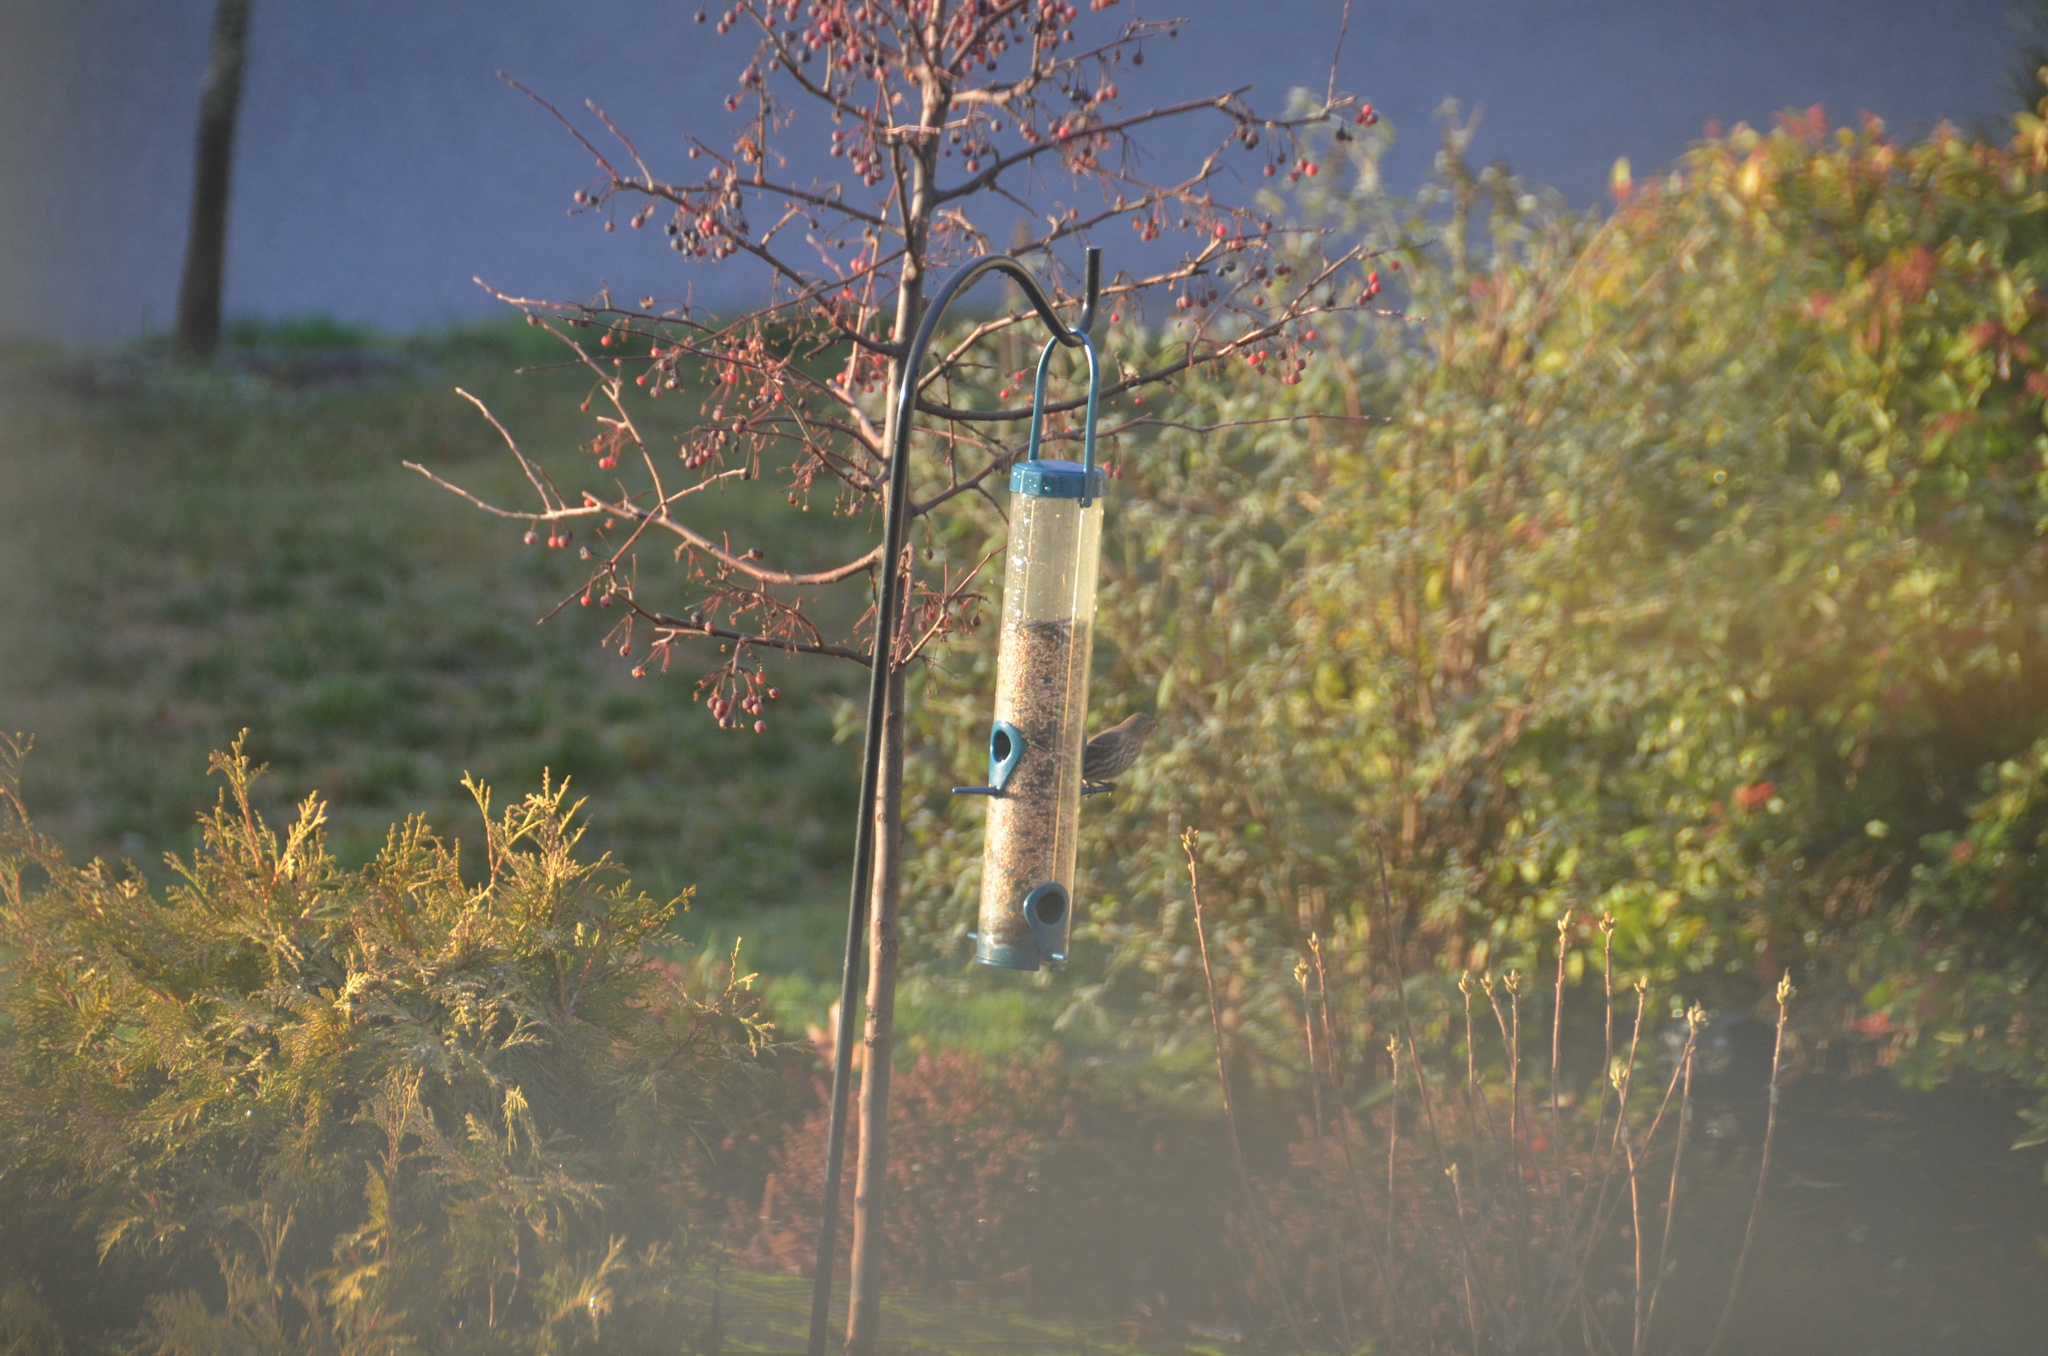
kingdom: Animalia
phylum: Chordata
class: Aves
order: Passeriformes
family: Fringillidae
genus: Haemorhous
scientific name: Haemorhous mexicanus
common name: House finch
